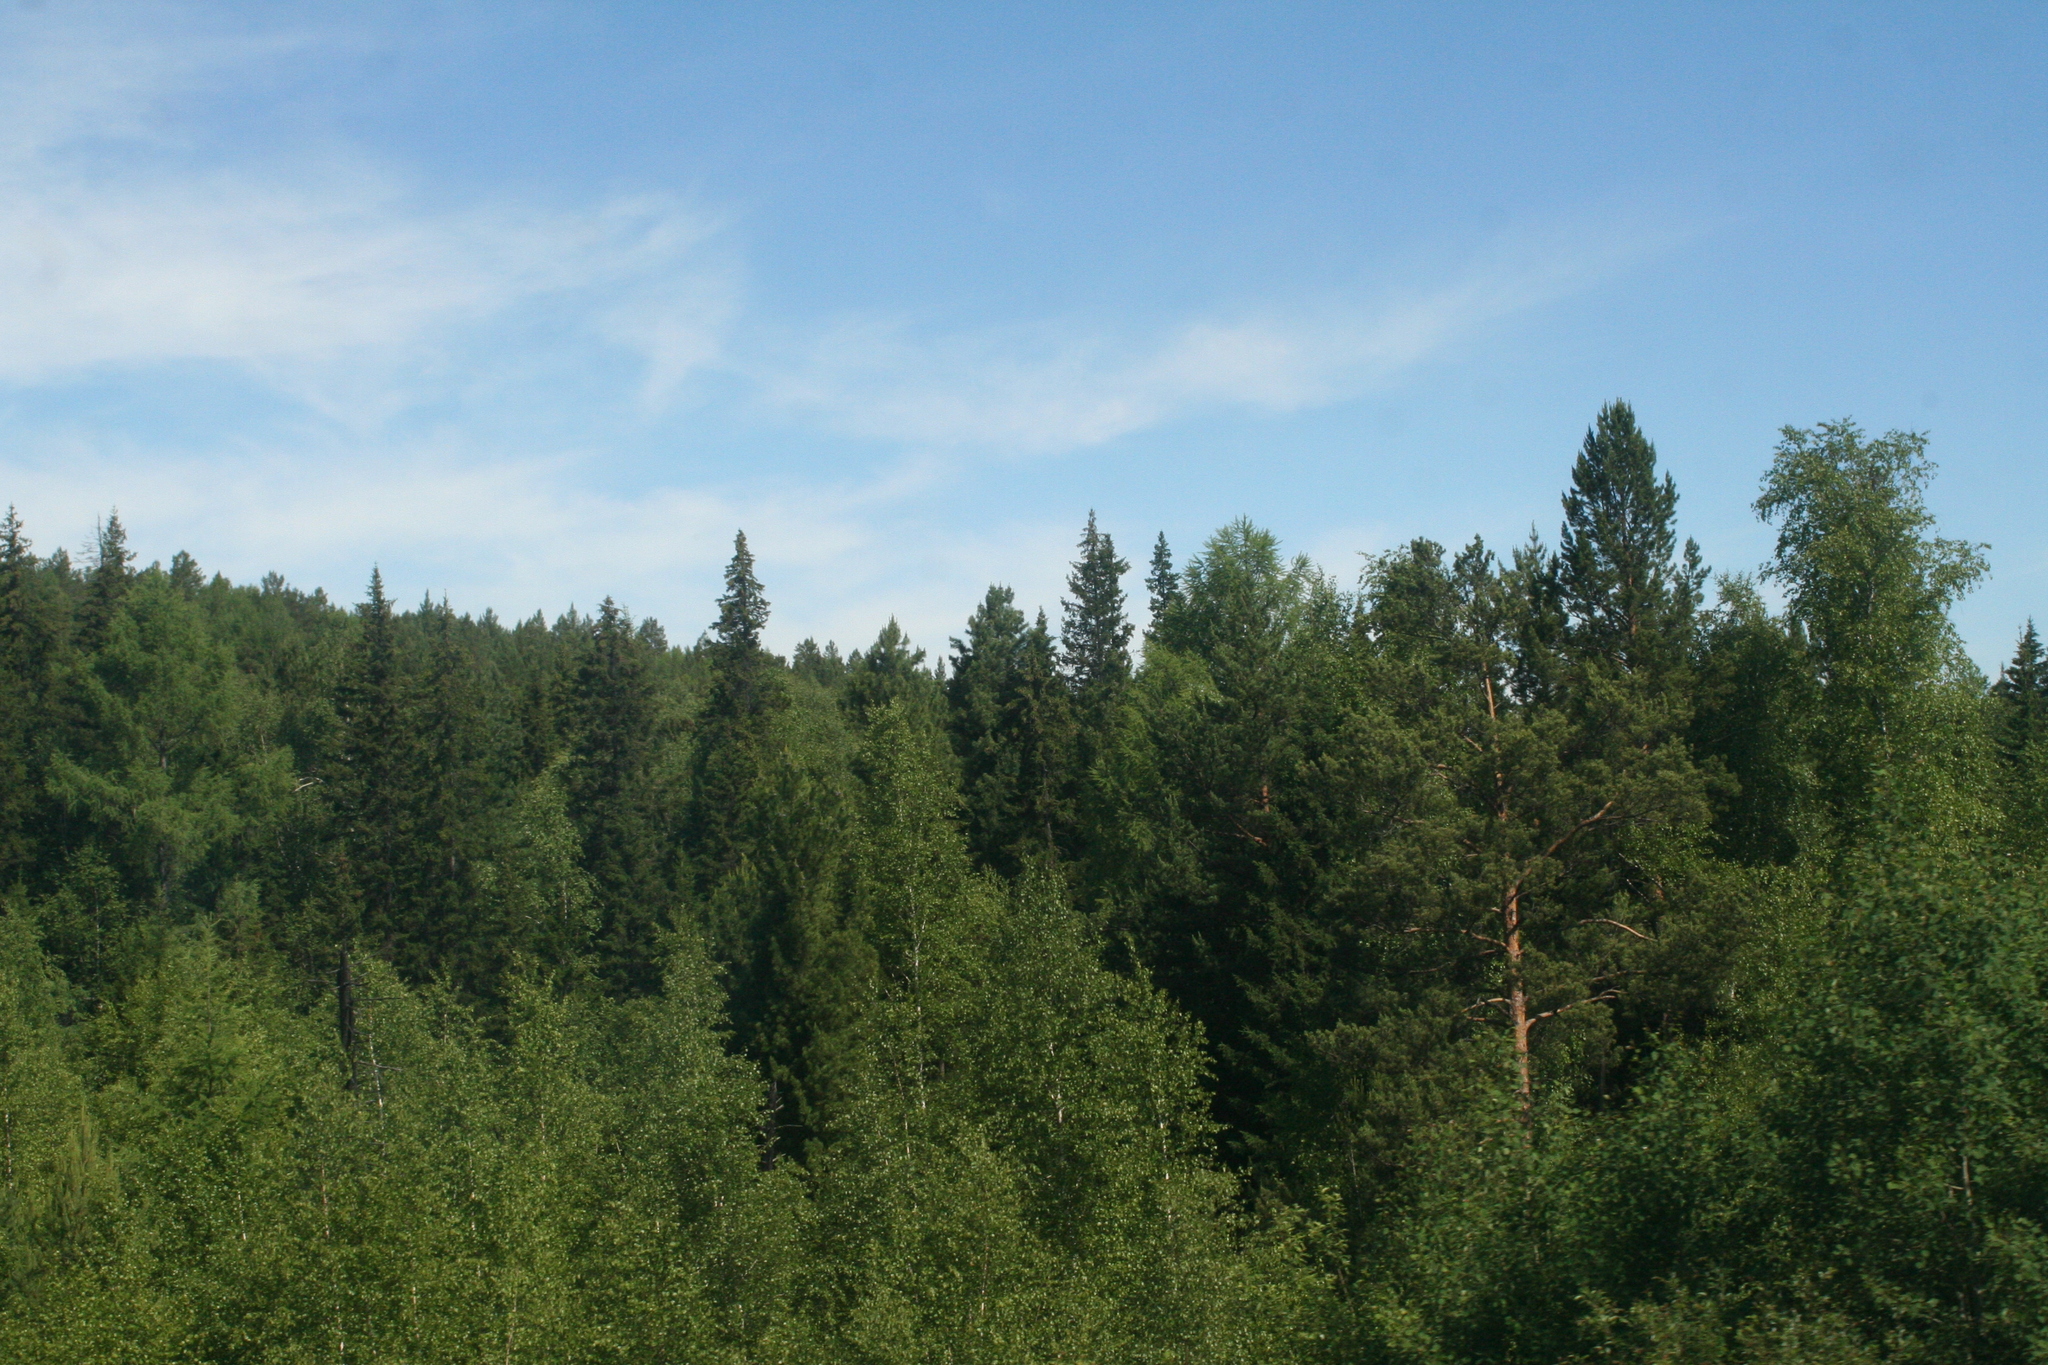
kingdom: Plantae
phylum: Tracheophyta
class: Pinopsida
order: Pinales
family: Pinaceae
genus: Pinus
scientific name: Pinus sibirica
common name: Siberian pine
